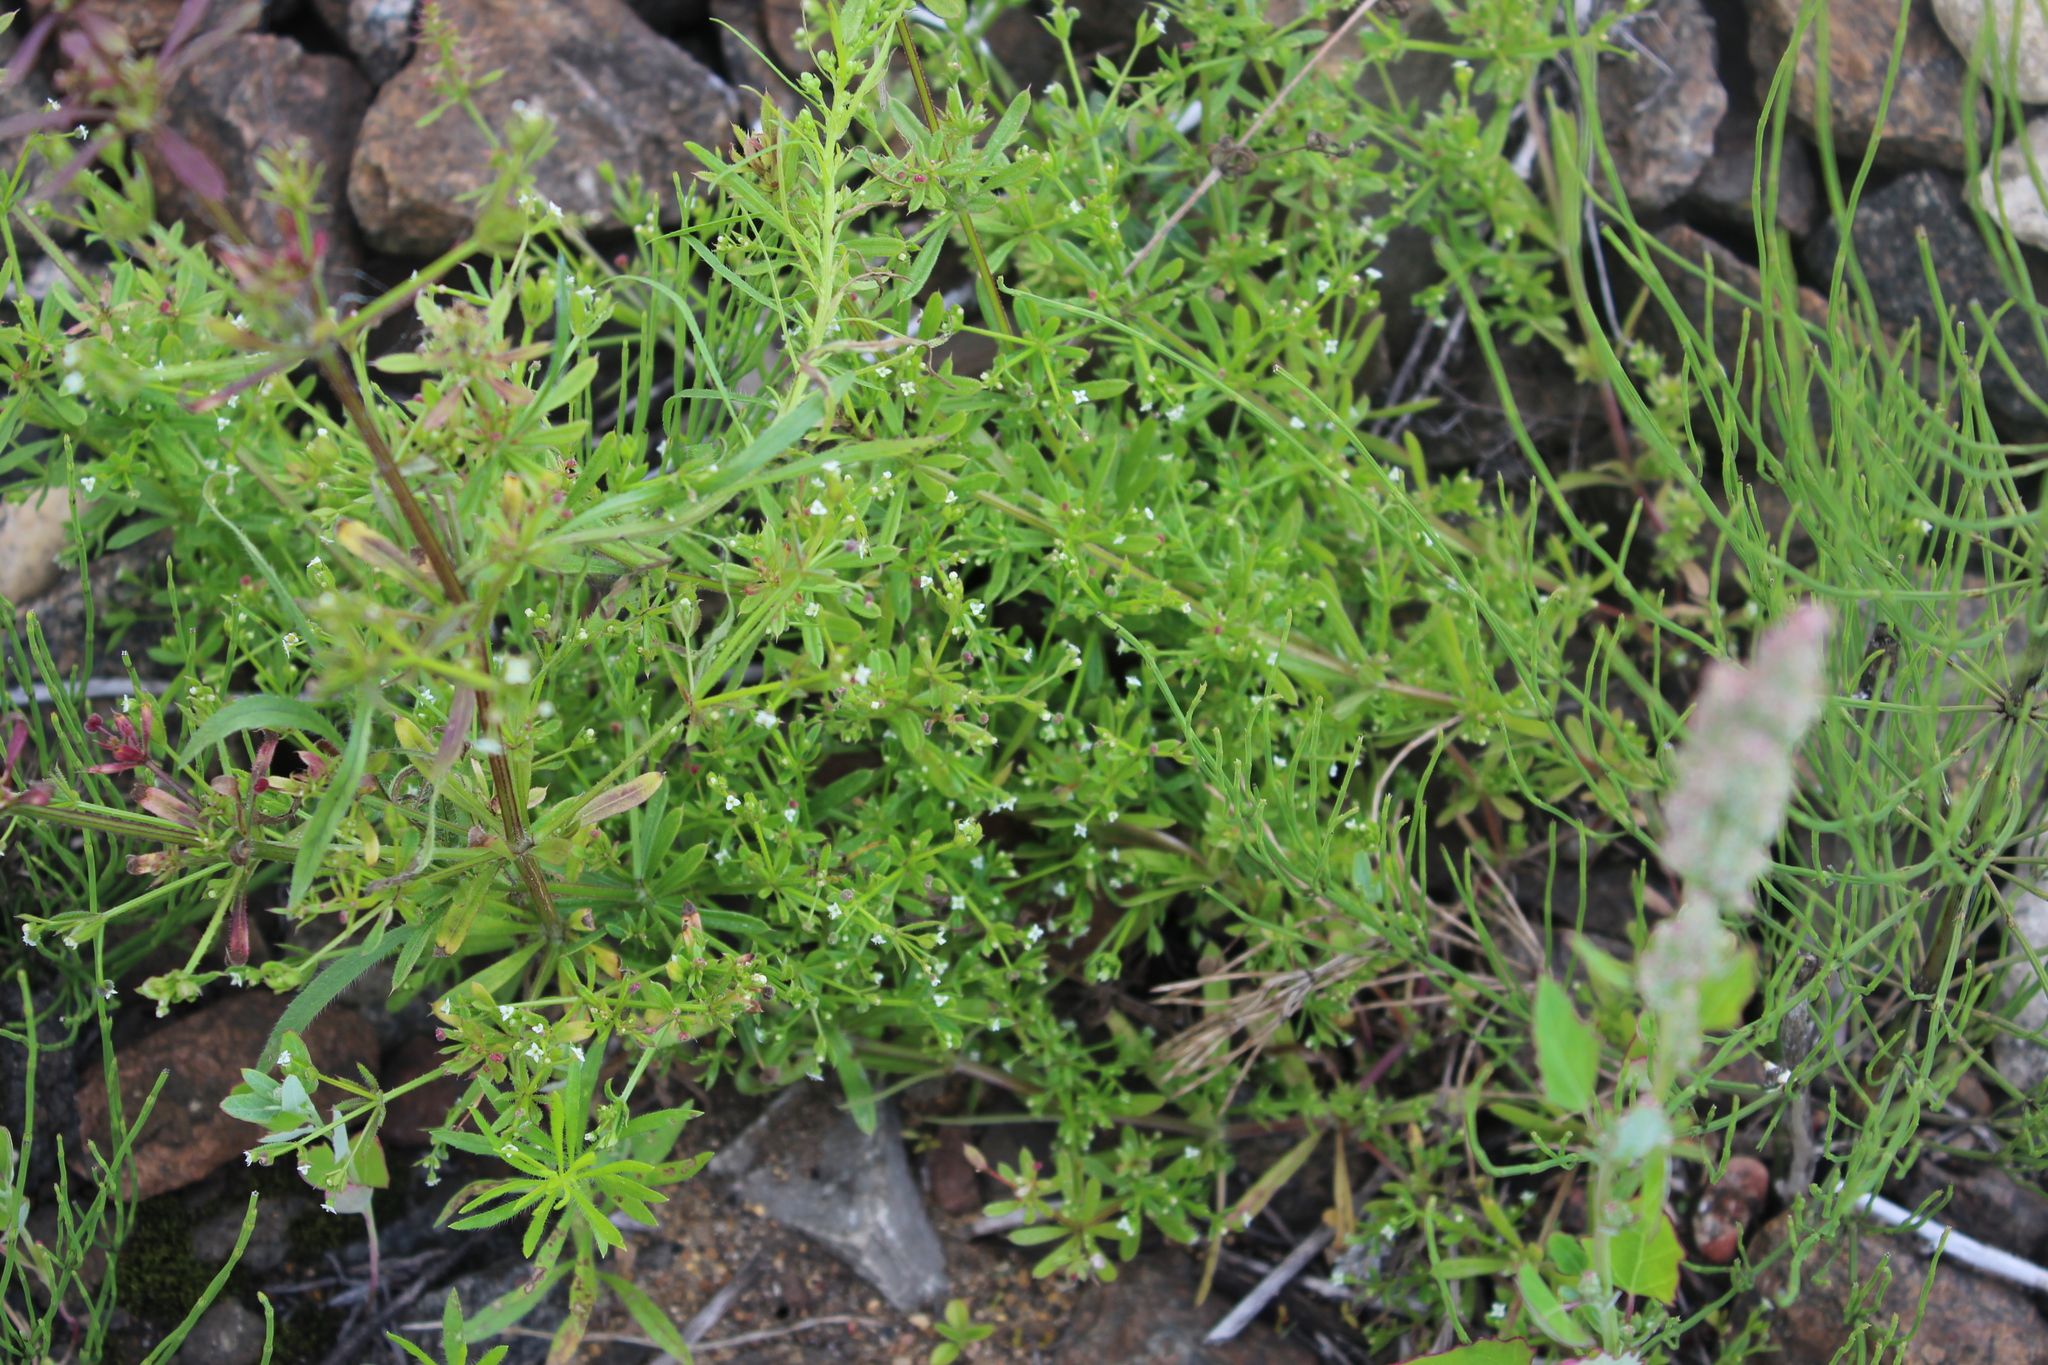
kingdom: Plantae
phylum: Tracheophyta
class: Magnoliopsida
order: Gentianales
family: Rubiaceae
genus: Galium
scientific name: Galium tricornutum
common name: Corn cleavers
